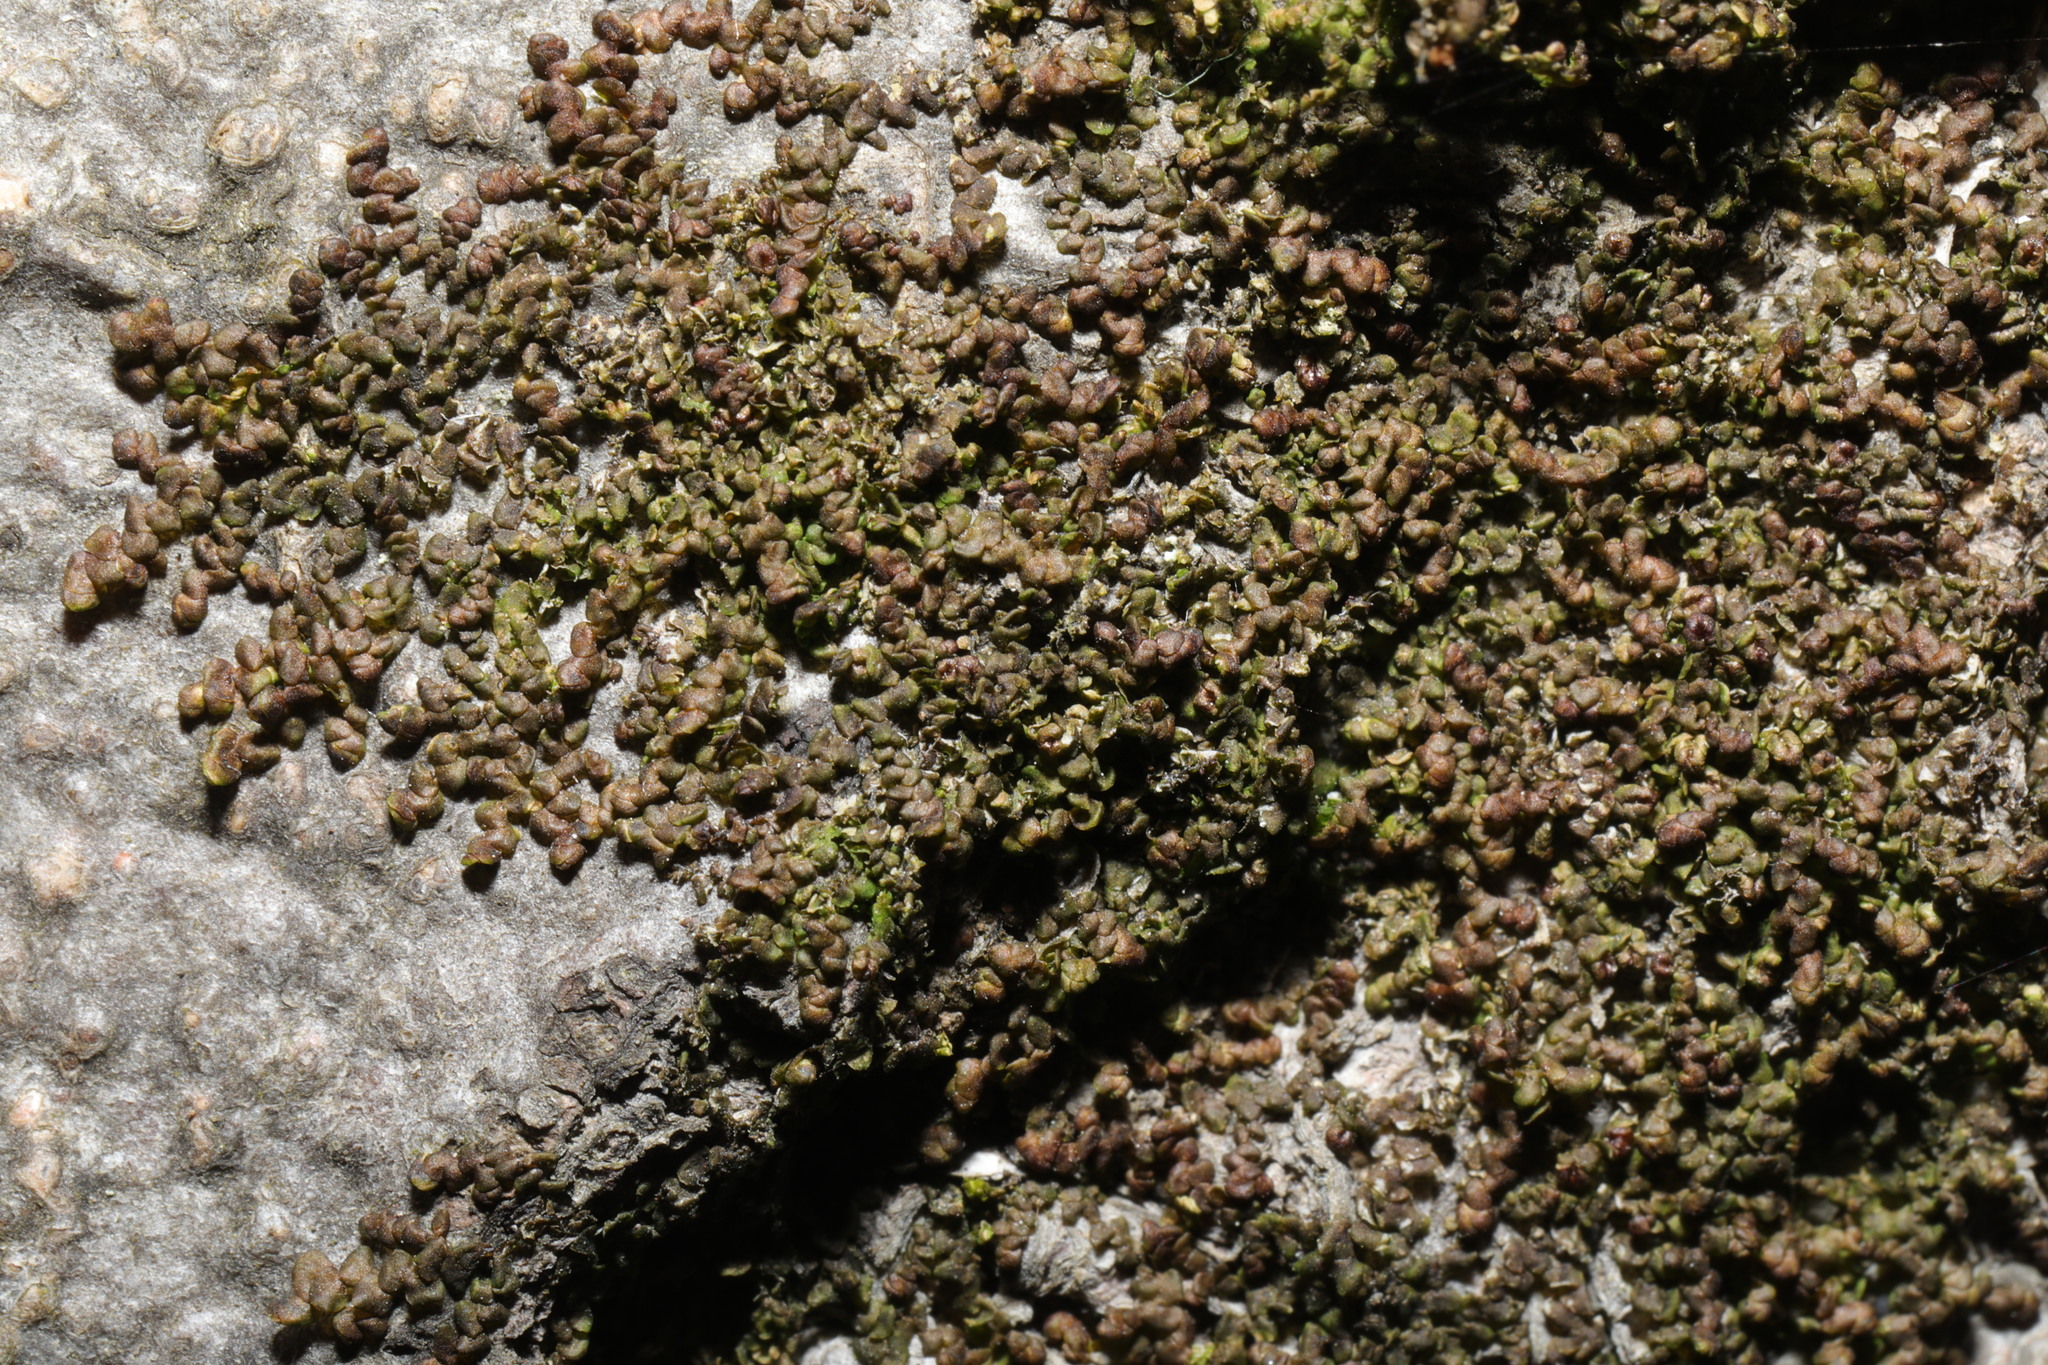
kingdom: Plantae
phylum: Marchantiophyta
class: Jungermanniopsida
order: Porellales
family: Frullaniaceae
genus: Frullania
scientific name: Frullania dilatata
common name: Dilated scalewort
